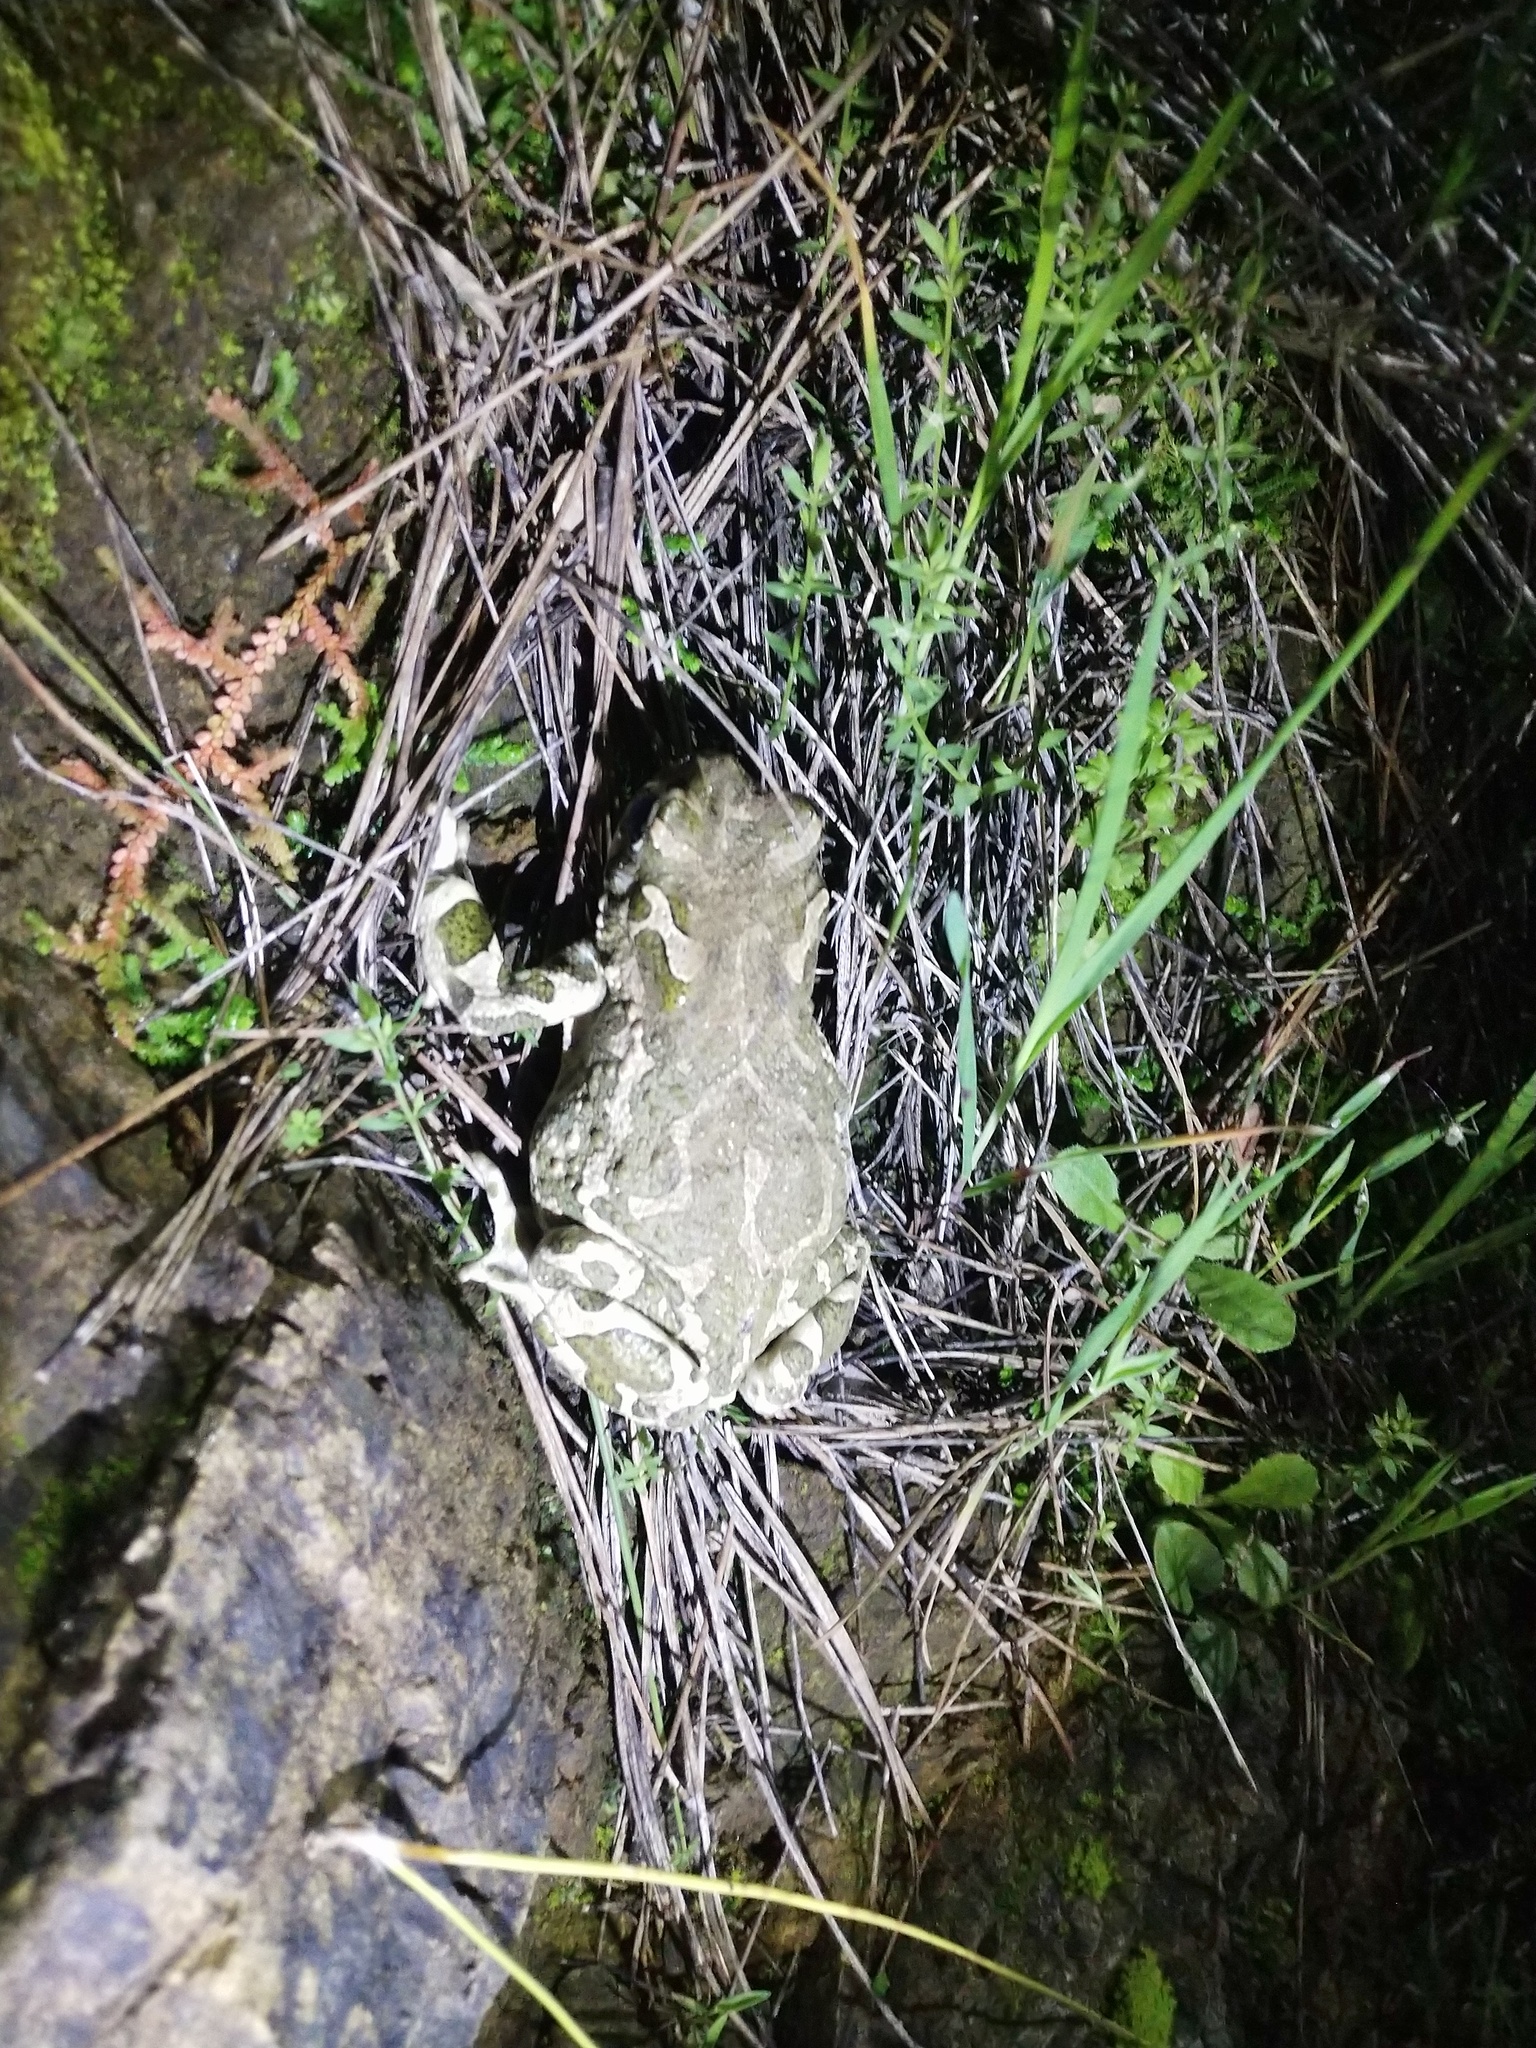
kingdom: Animalia
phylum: Chordata
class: Amphibia
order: Anura
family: Bufonidae
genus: Bufotes
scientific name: Bufotes viridis
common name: European green toad
